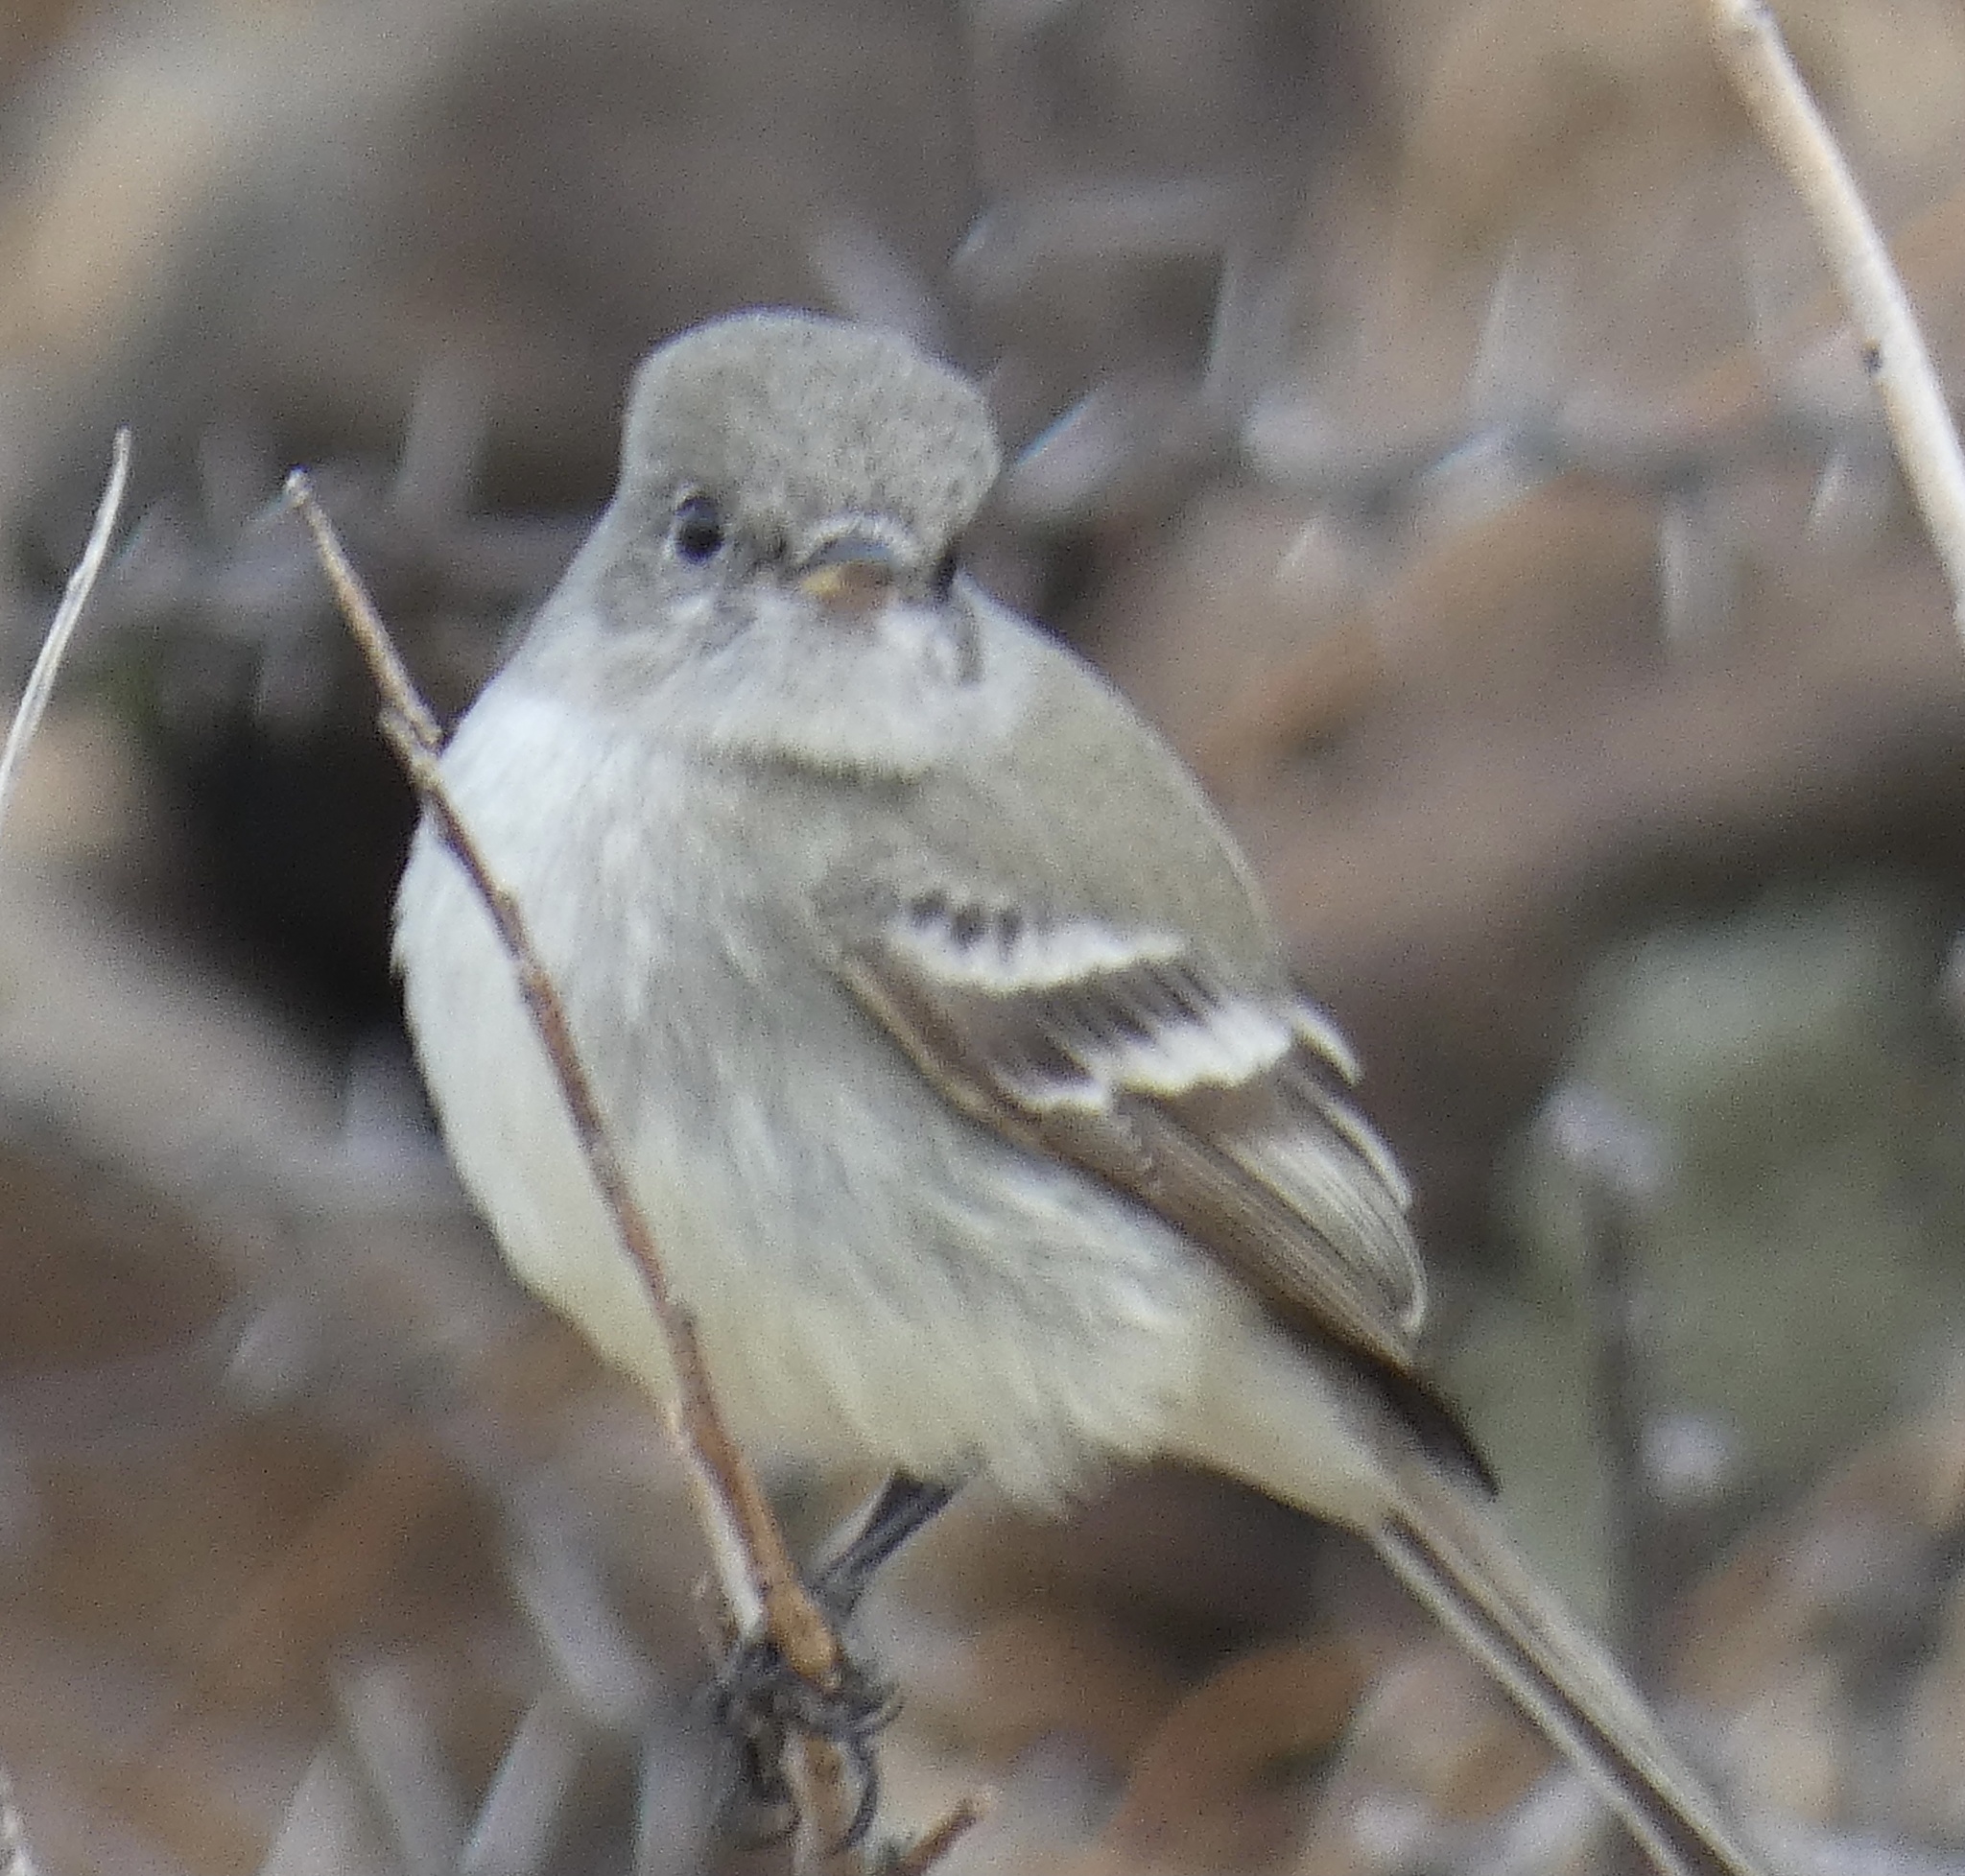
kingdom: Animalia
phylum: Chordata
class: Aves
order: Passeriformes
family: Tyrannidae
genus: Empidonax
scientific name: Empidonax wrightii
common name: Gray flycatcher
